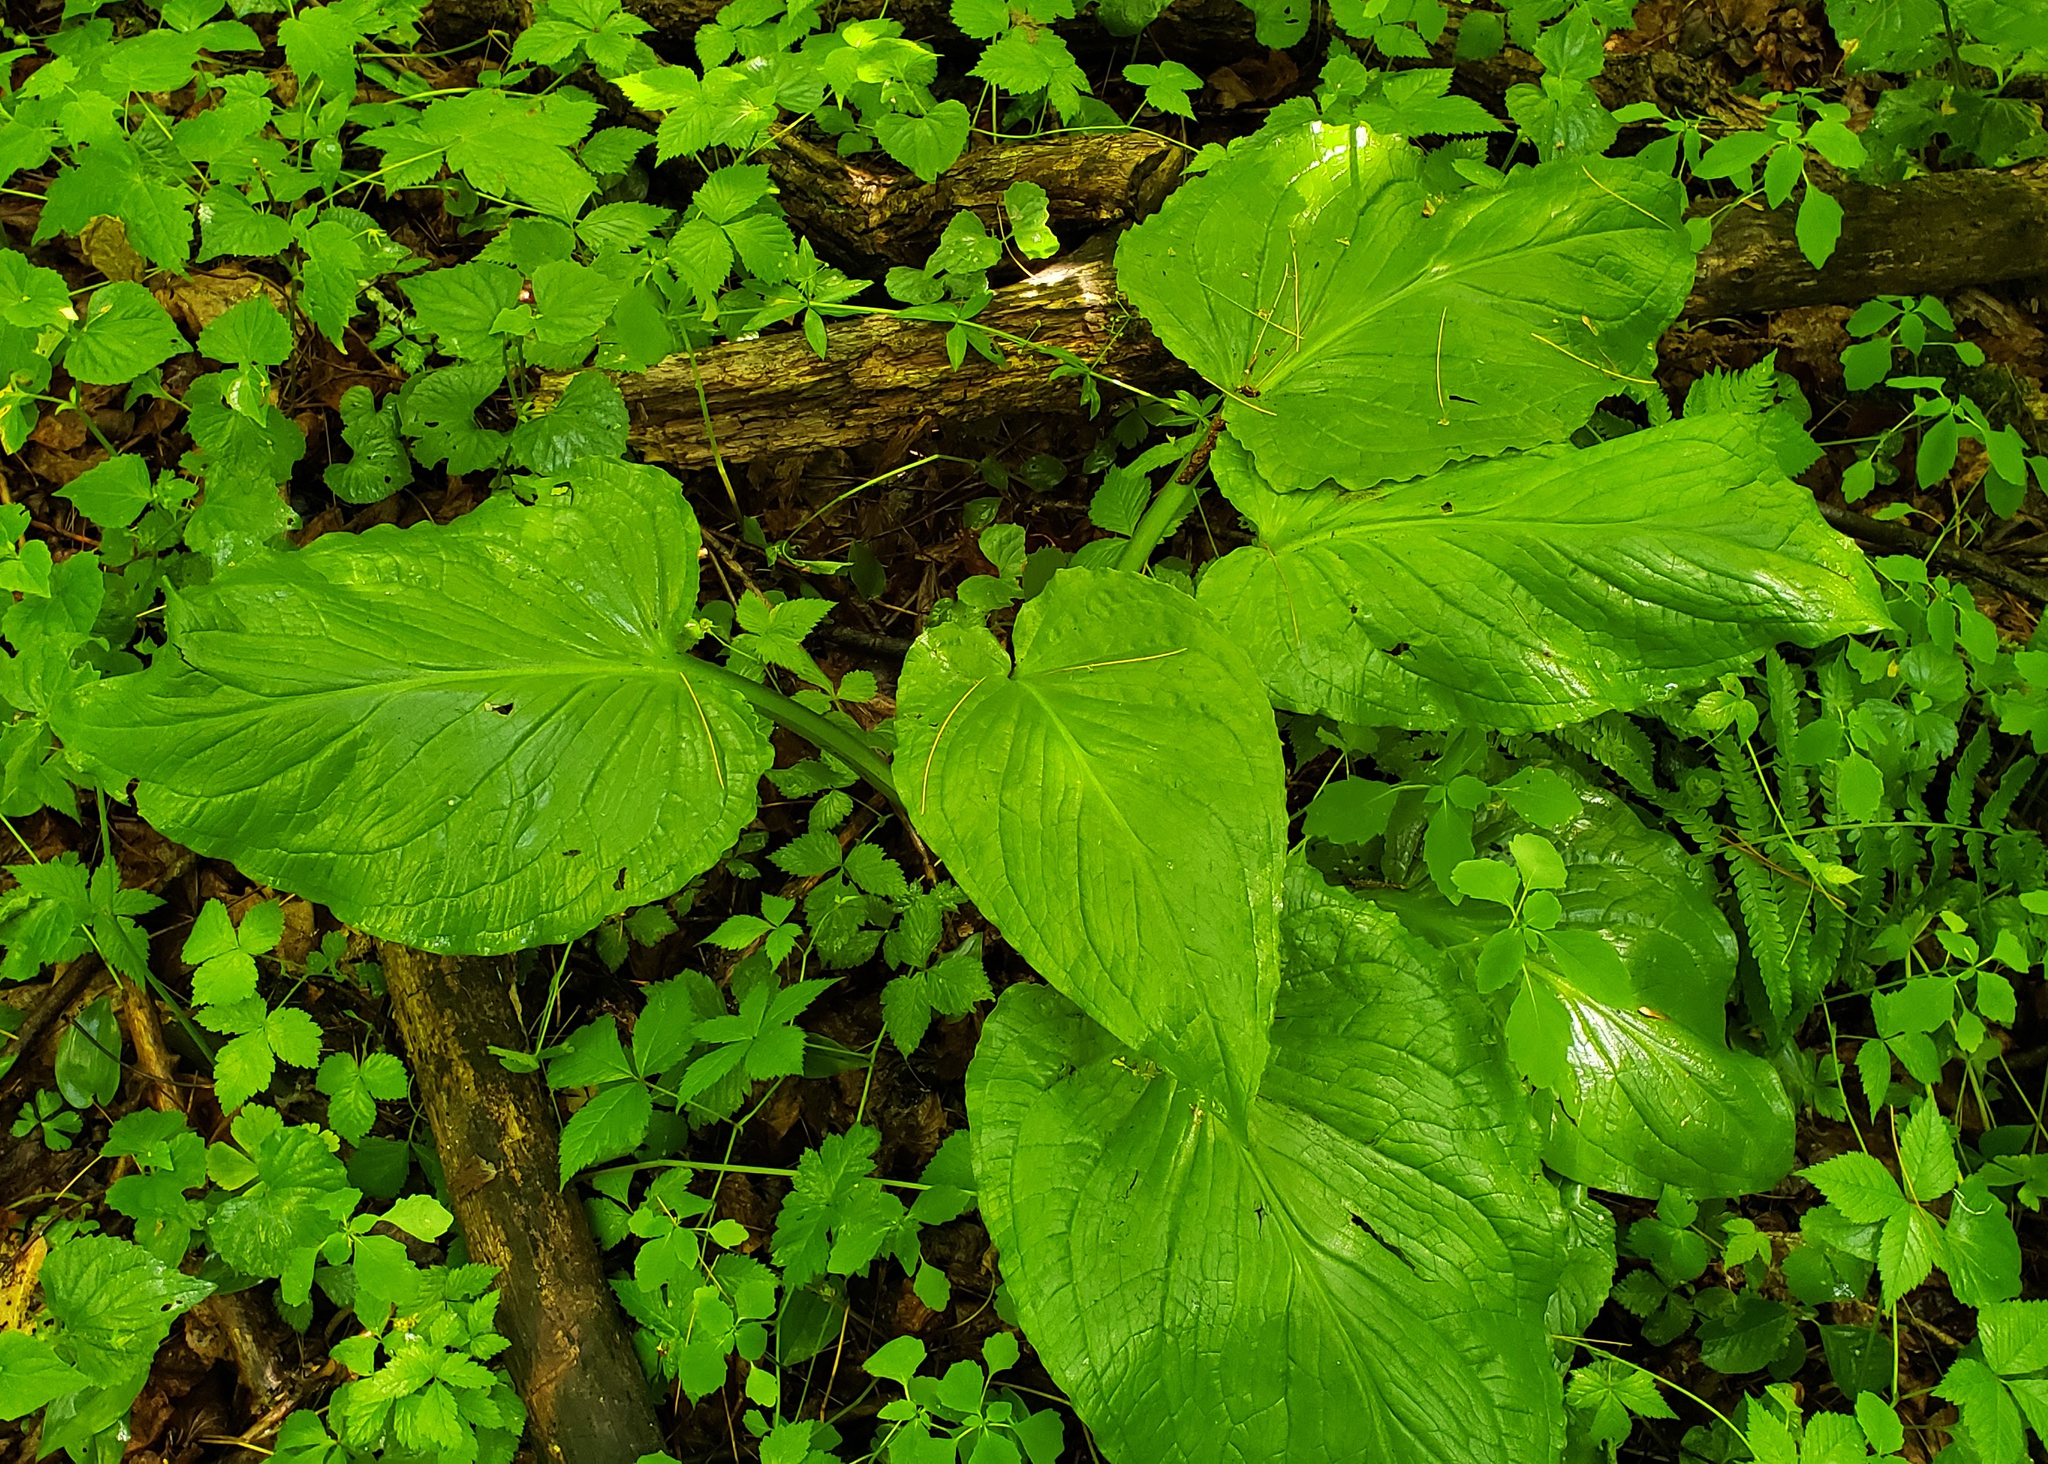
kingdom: Plantae
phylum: Tracheophyta
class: Liliopsida
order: Alismatales
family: Araceae
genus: Symplocarpus
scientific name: Symplocarpus foetidus
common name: Eastern skunk cabbage
